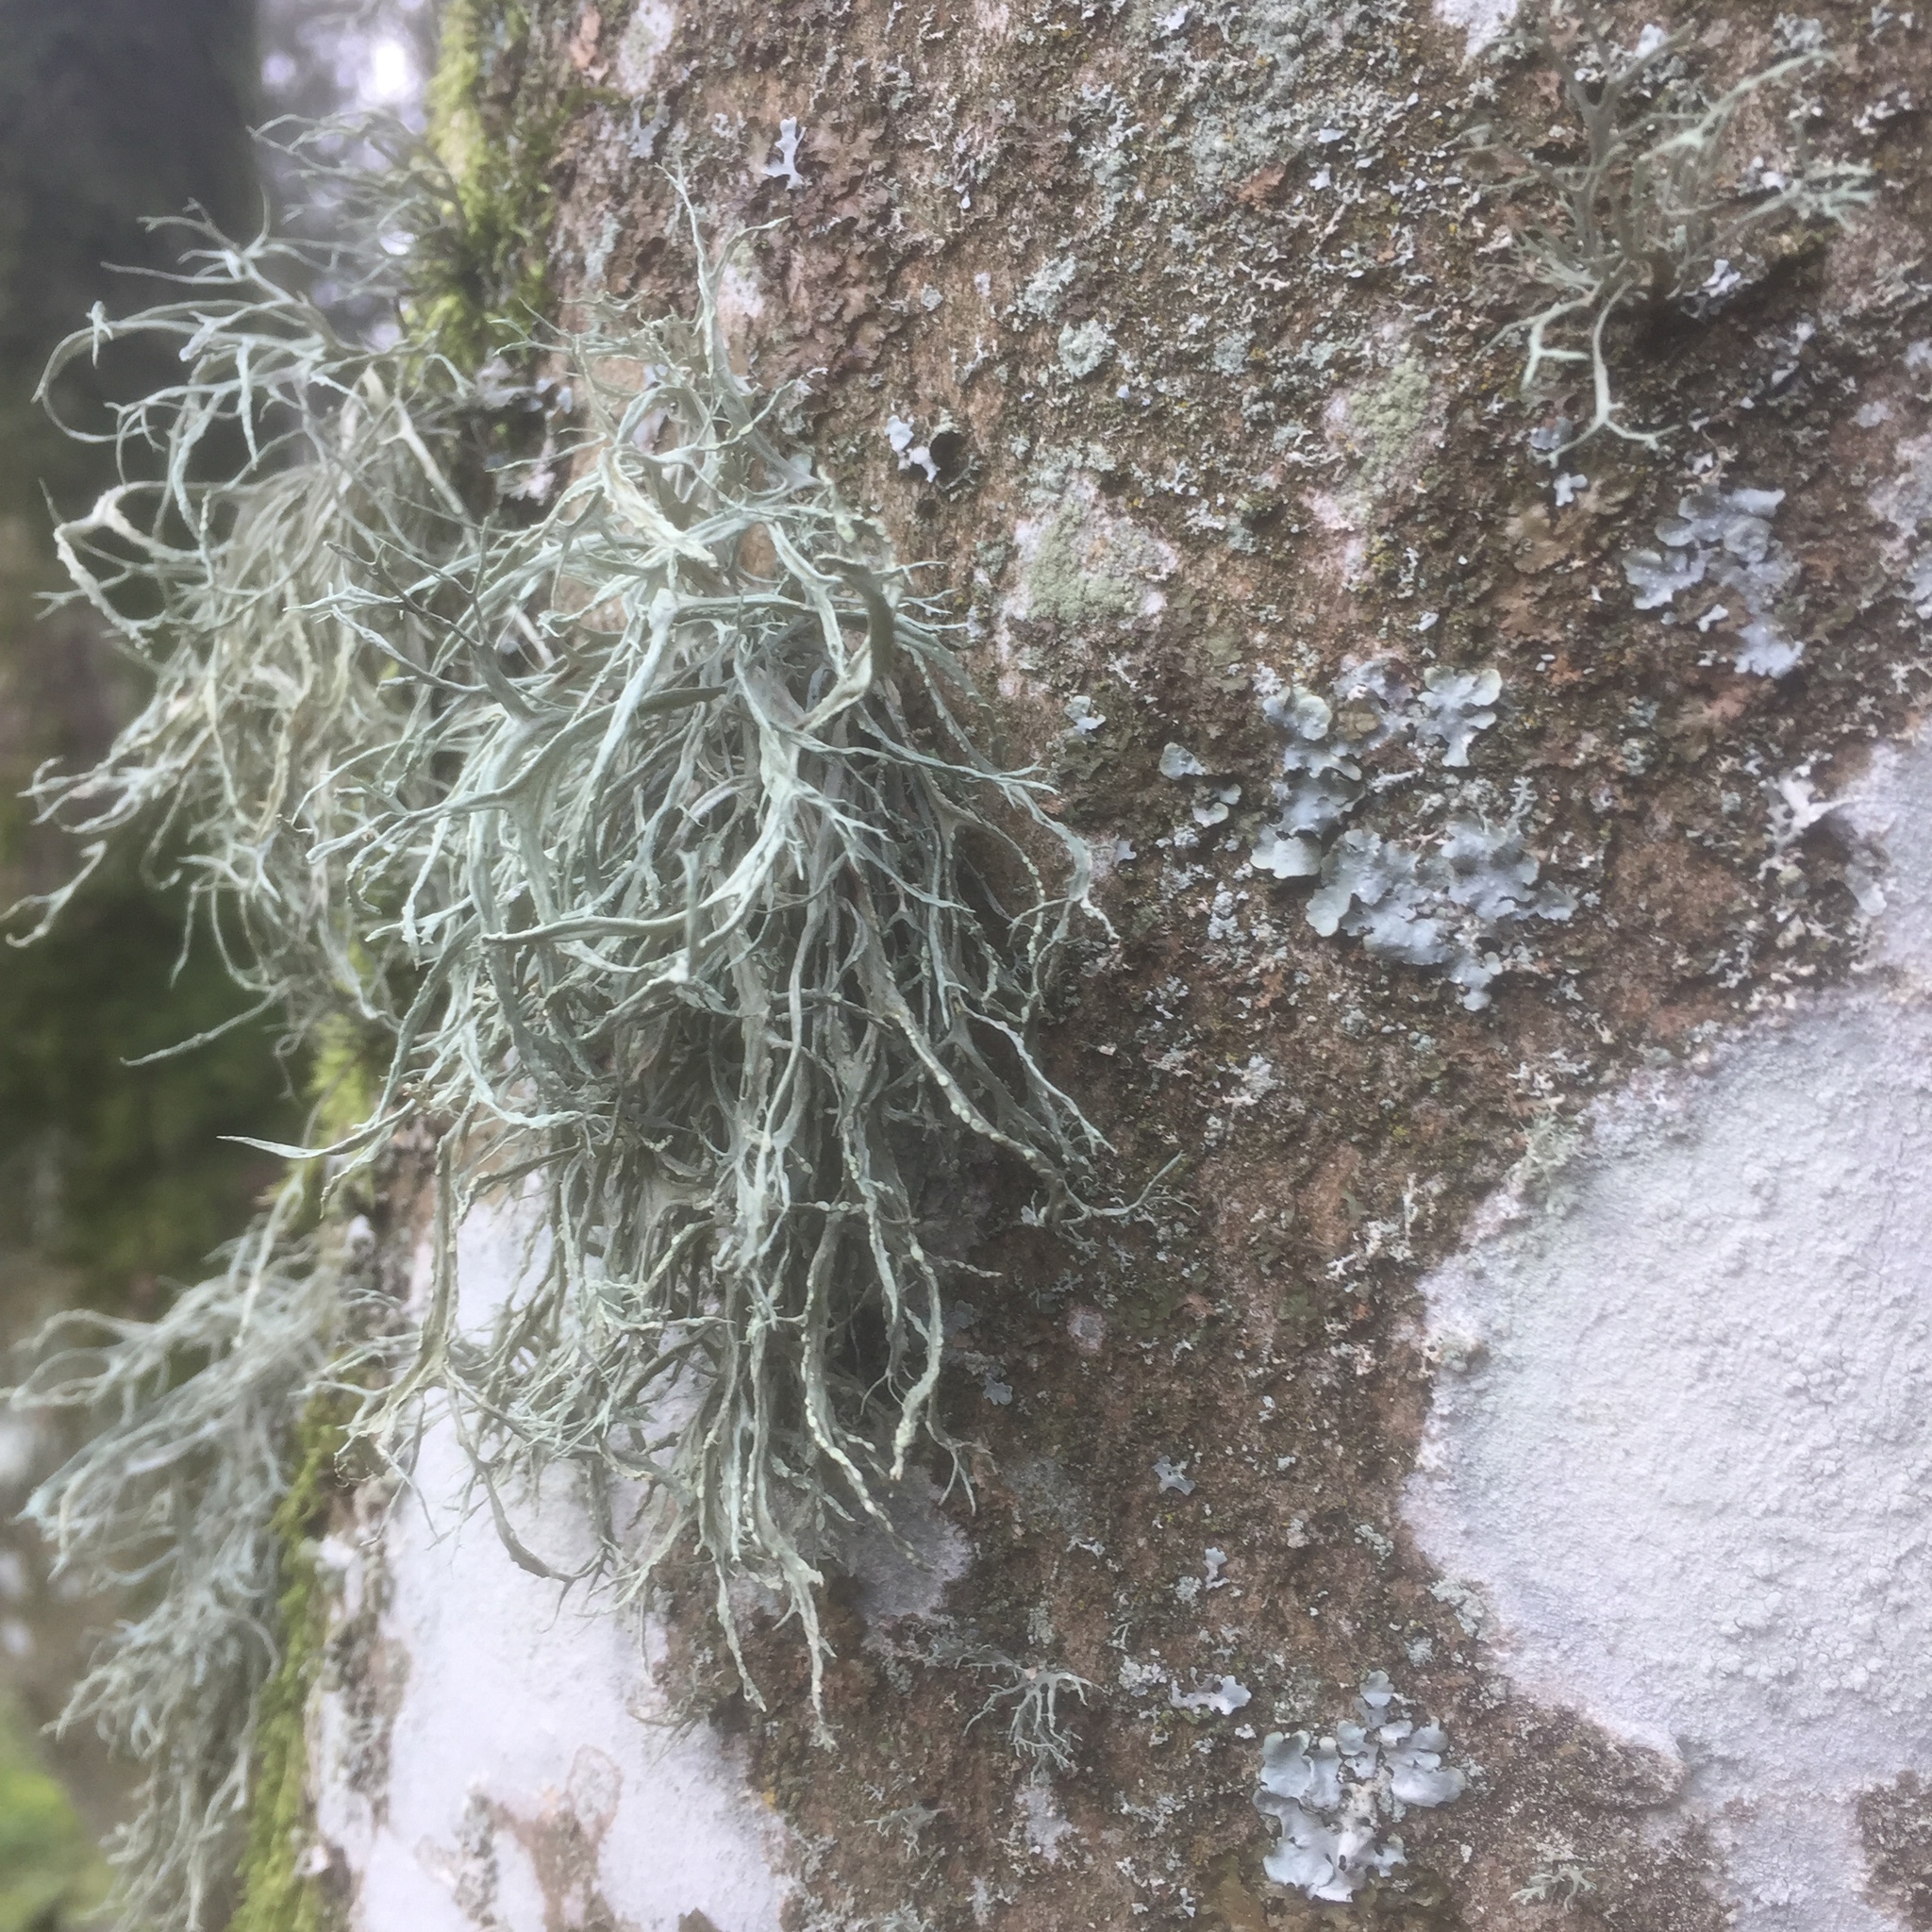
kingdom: Fungi
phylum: Ascomycota
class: Lecanoromycetes
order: Lecanorales
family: Ramalinaceae
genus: Ramalina
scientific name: Ramalina farinacea
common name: Farinose cartilage lichen
